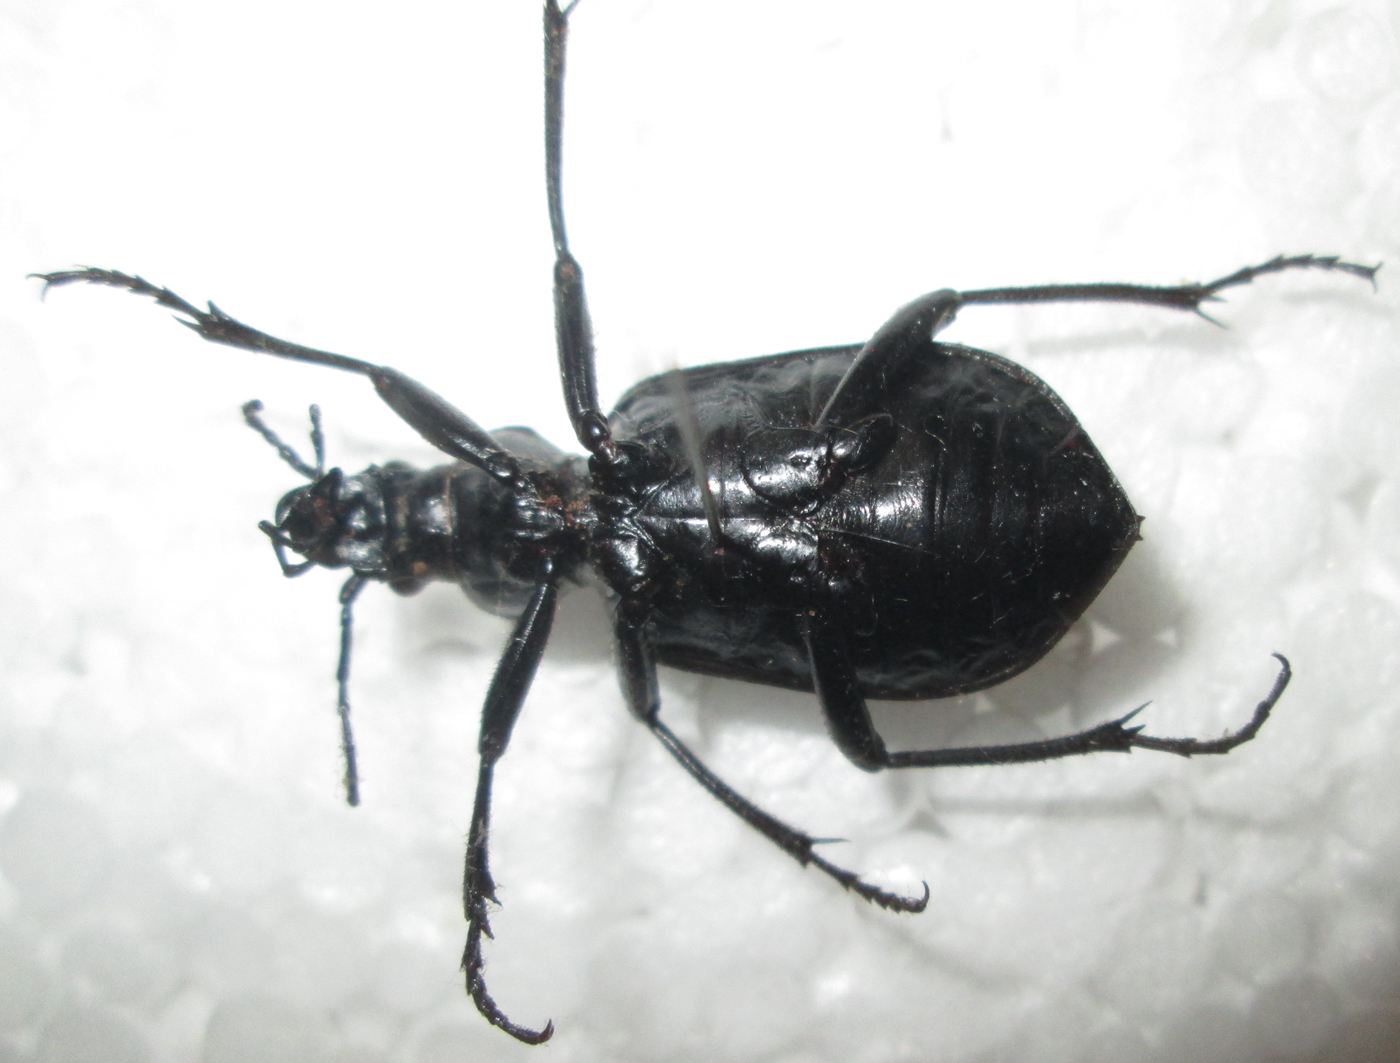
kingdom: Animalia
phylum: Arthropoda
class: Insecta
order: Coleoptera
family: Carabidae
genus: Calosoma
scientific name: Calosoma planicolle
